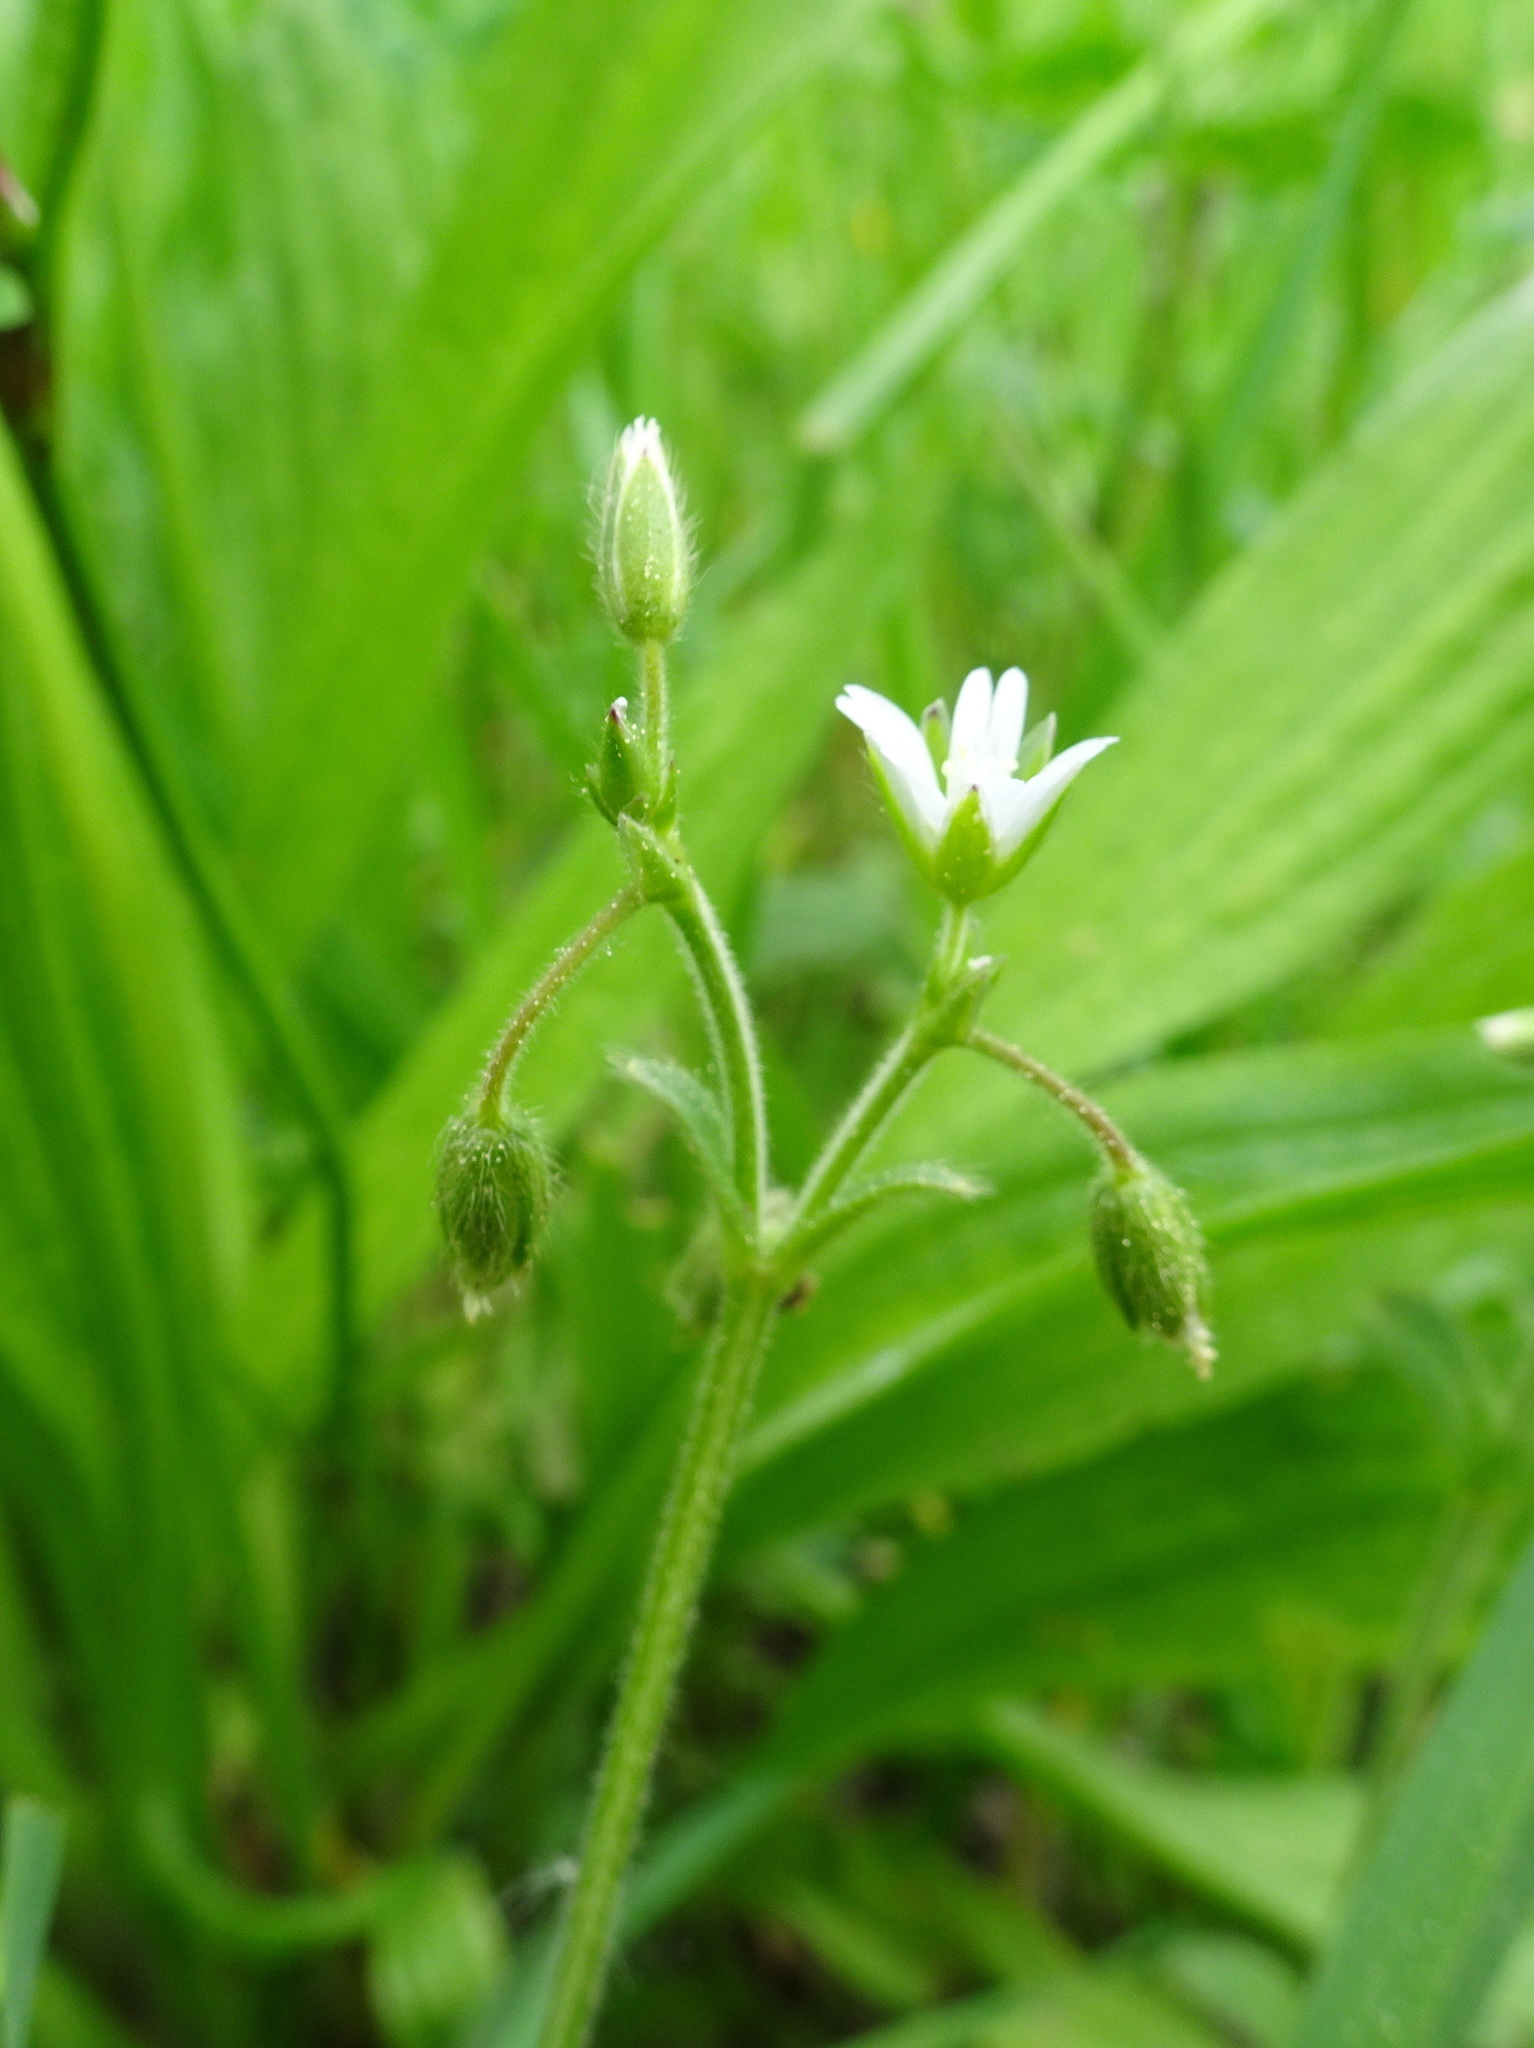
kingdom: Plantae
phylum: Tracheophyta
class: Magnoliopsida
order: Caryophyllales
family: Caryophyllaceae
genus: Cerastium
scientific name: Cerastium holosteoides
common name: Big chickweed
